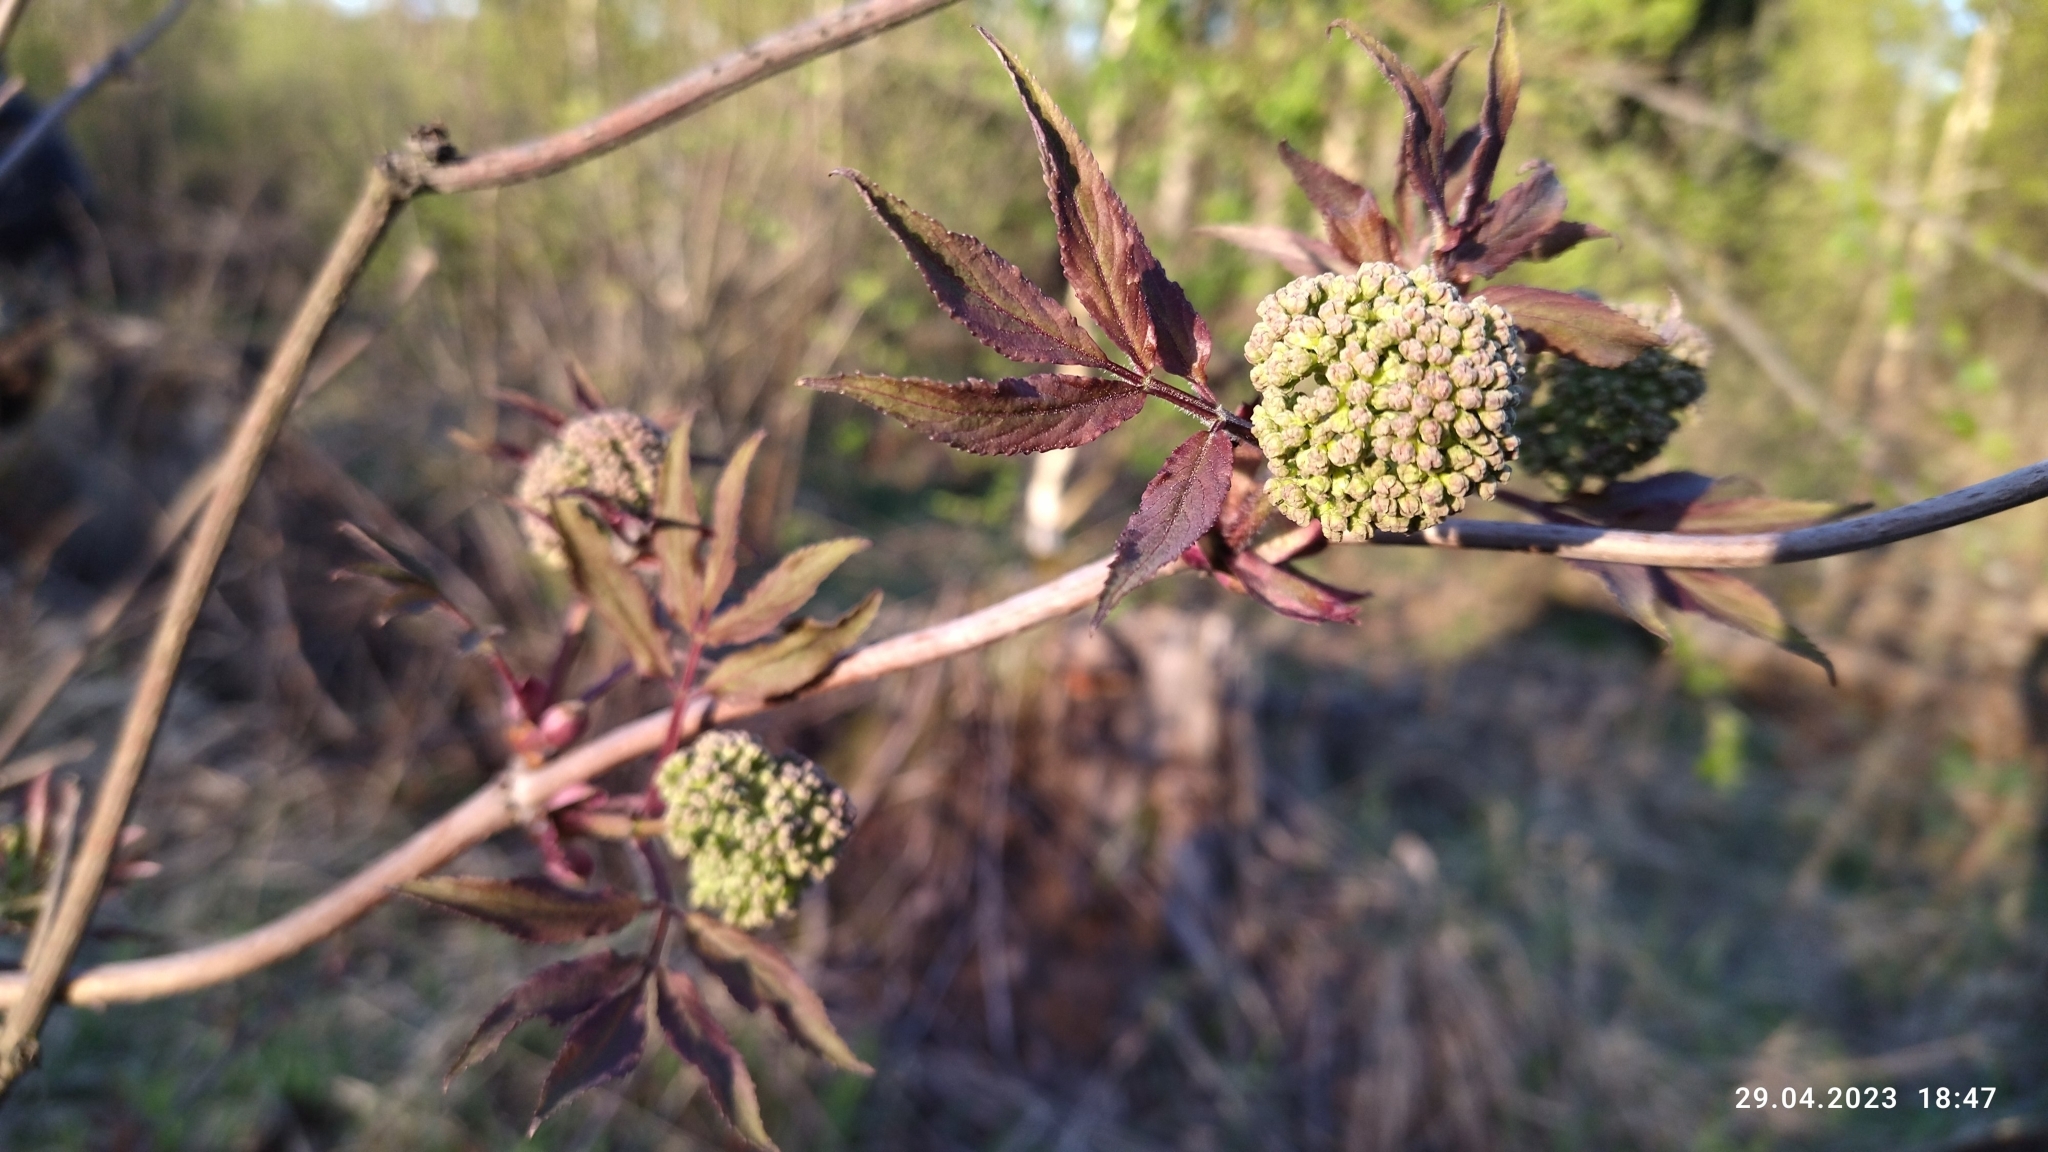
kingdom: Plantae
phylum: Tracheophyta
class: Magnoliopsida
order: Dipsacales
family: Viburnaceae
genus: Sambucus
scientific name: Sambucus racemosa
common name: Red-berried elder
